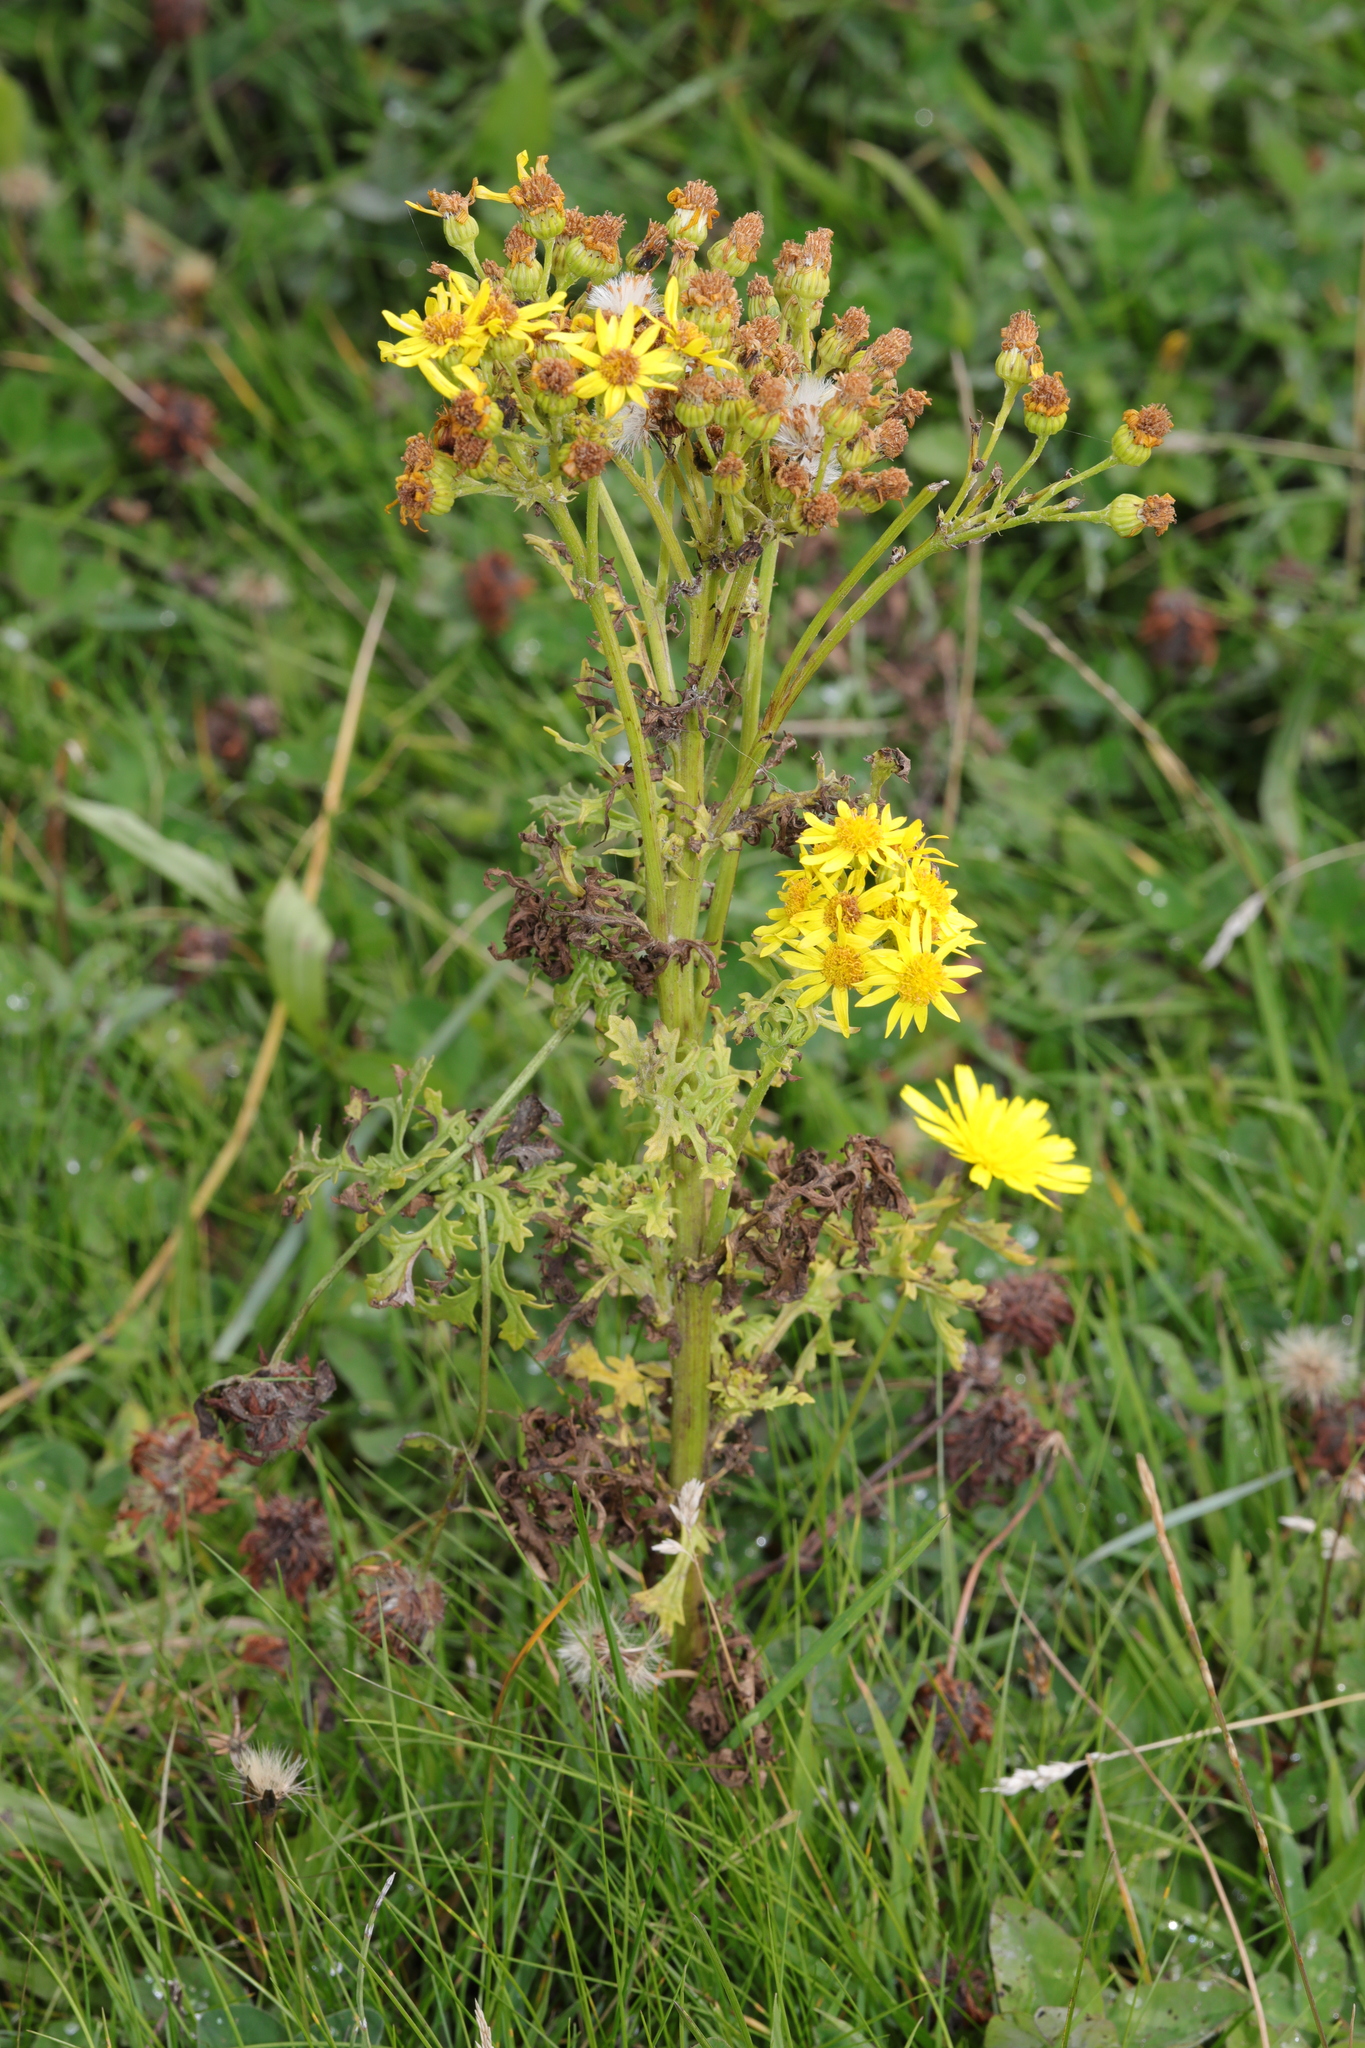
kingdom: Plantae
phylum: Tracheophyta
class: Magnoliopsida
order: Asterales
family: Asteraceae
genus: Jacobaea
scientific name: Jacobaea vulgaris
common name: Stinking willie
